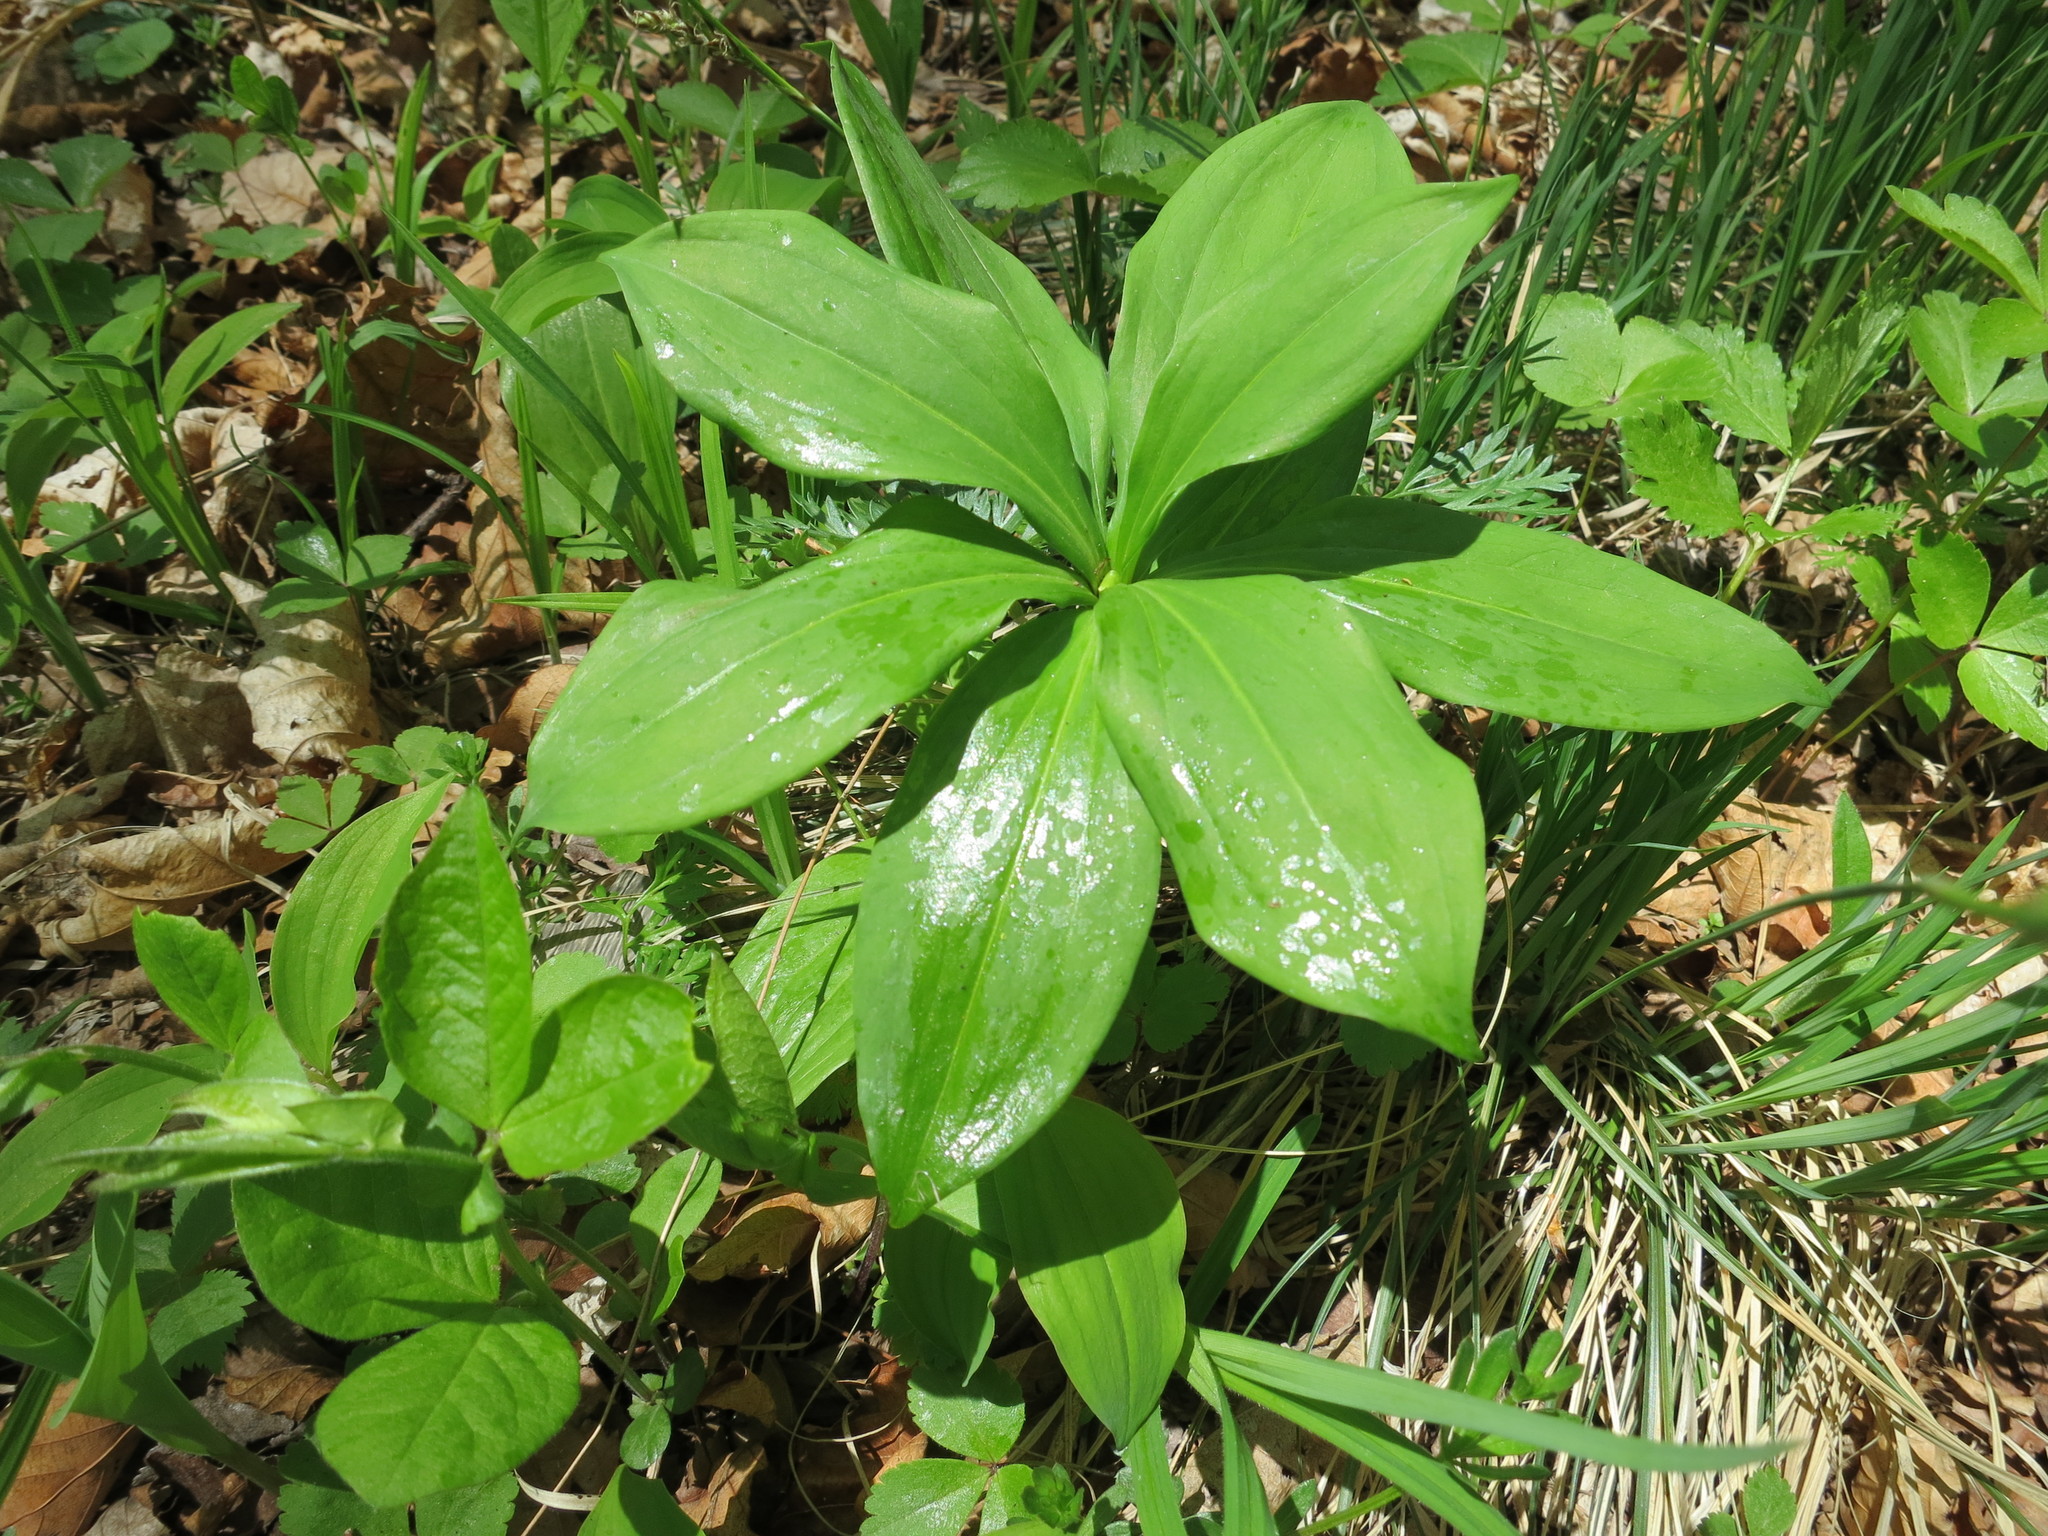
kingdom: Plantae
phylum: Tracheophyta
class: Liliopsida
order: Liliales
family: Liliaceae
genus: Lilium
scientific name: Lilium distichum
